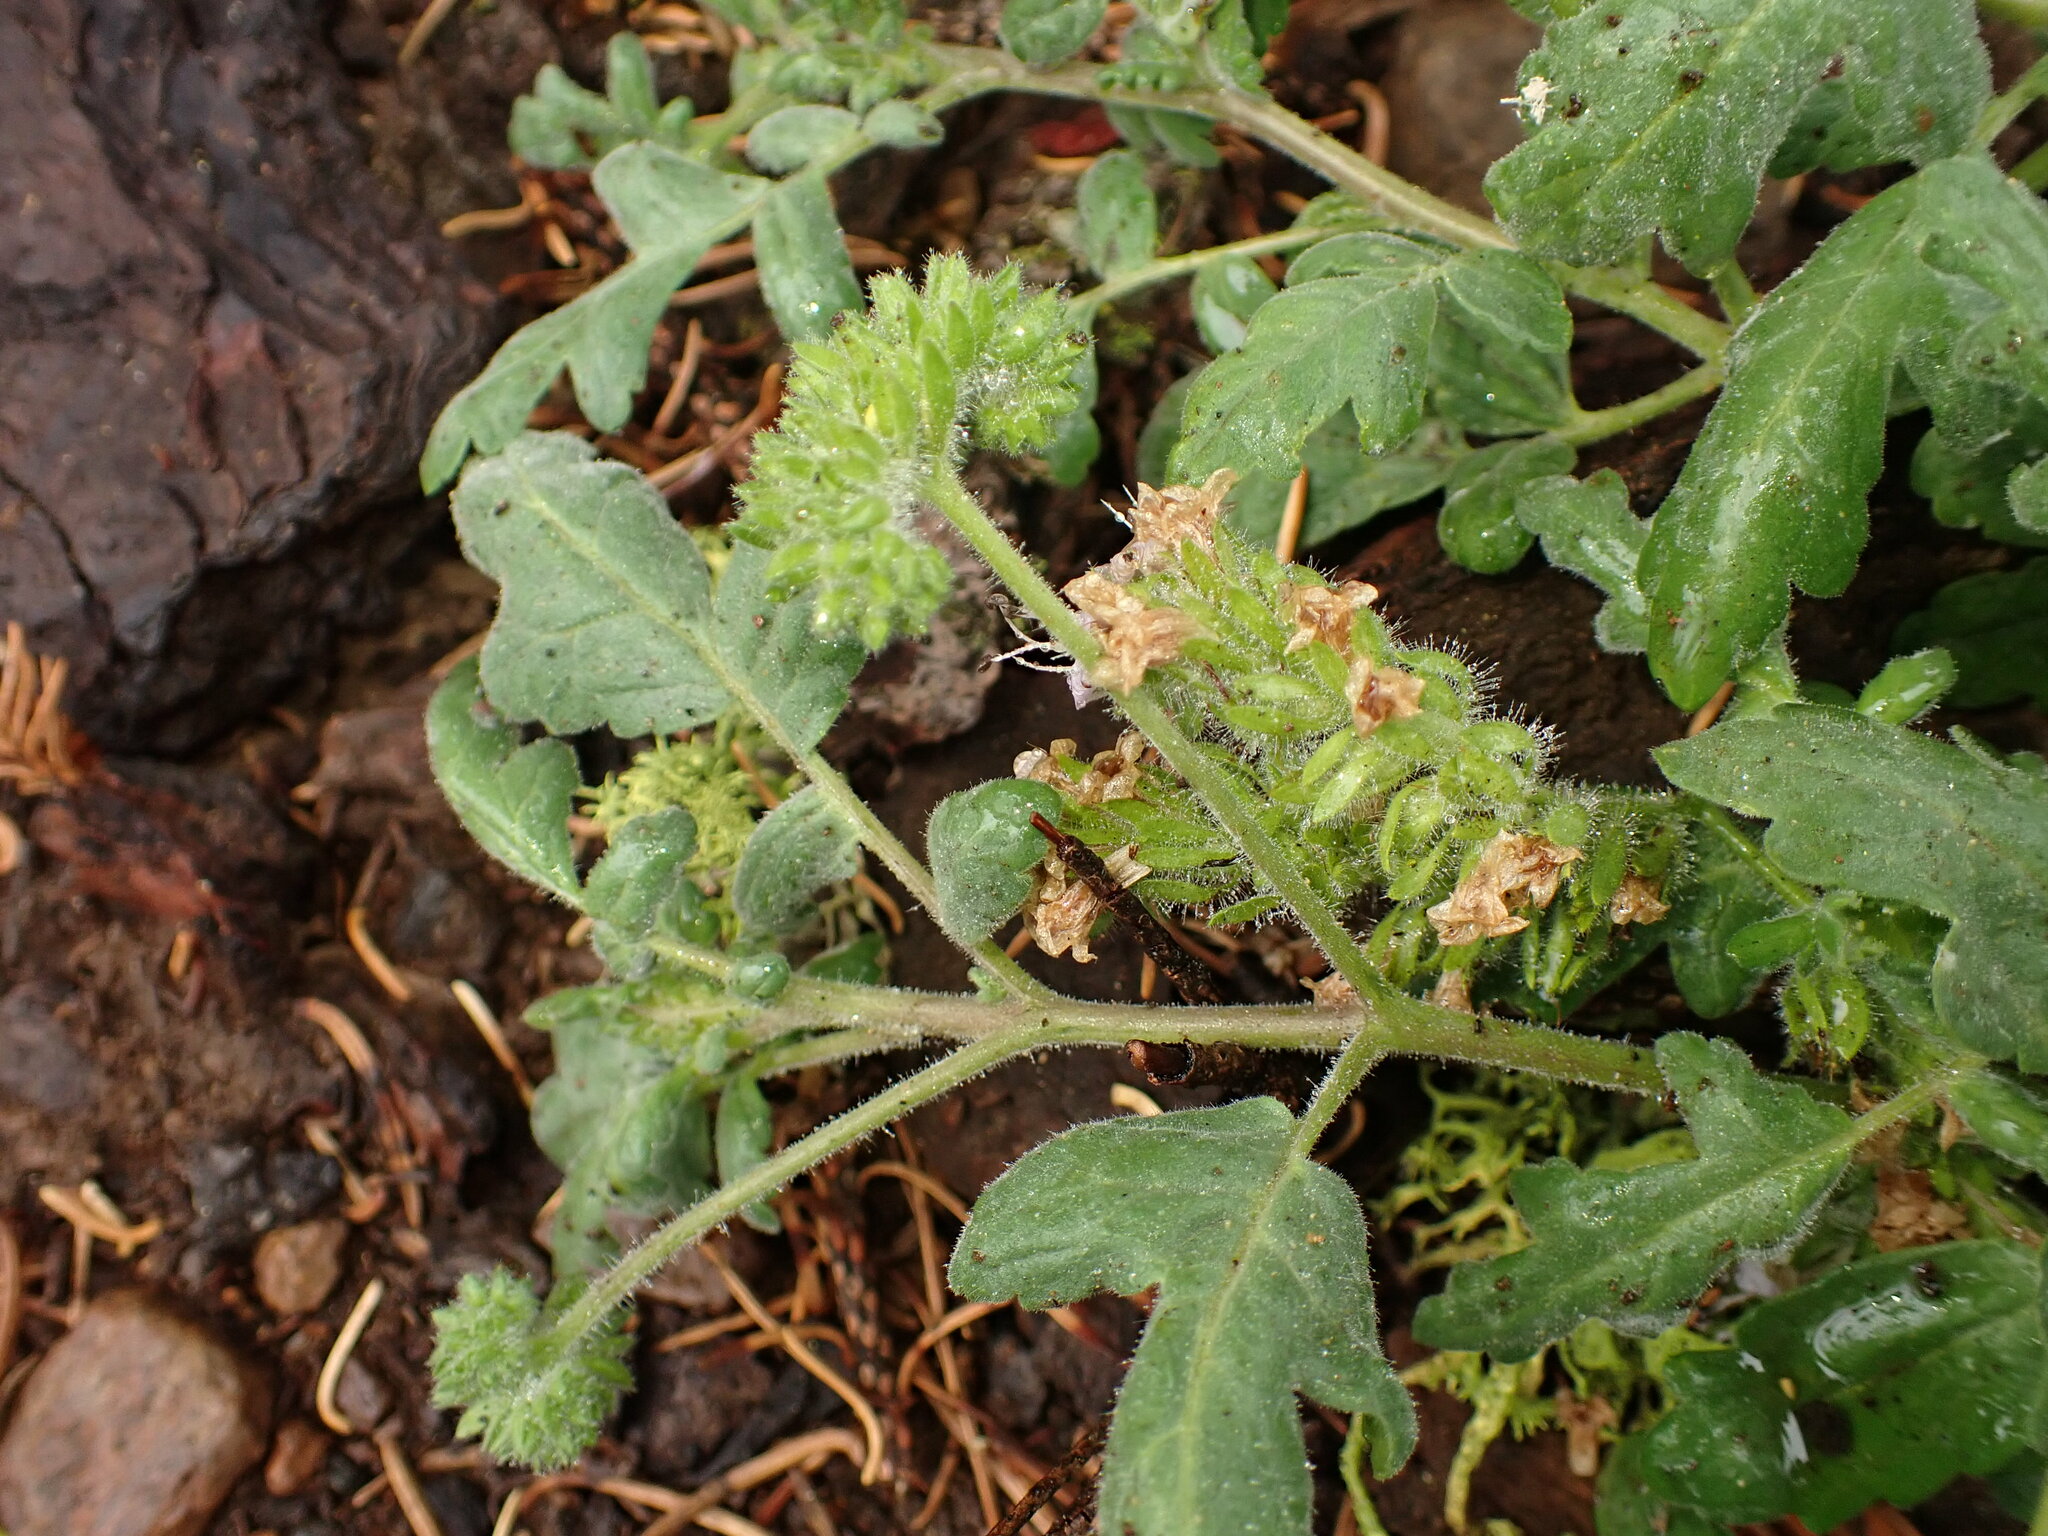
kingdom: Plantae
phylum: Tracheophyta
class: Magnoliopsida
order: Boraginales
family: Hydrophyllaceae
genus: Phacelia
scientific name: Phacelia ramosissima
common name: Branching phacelia
